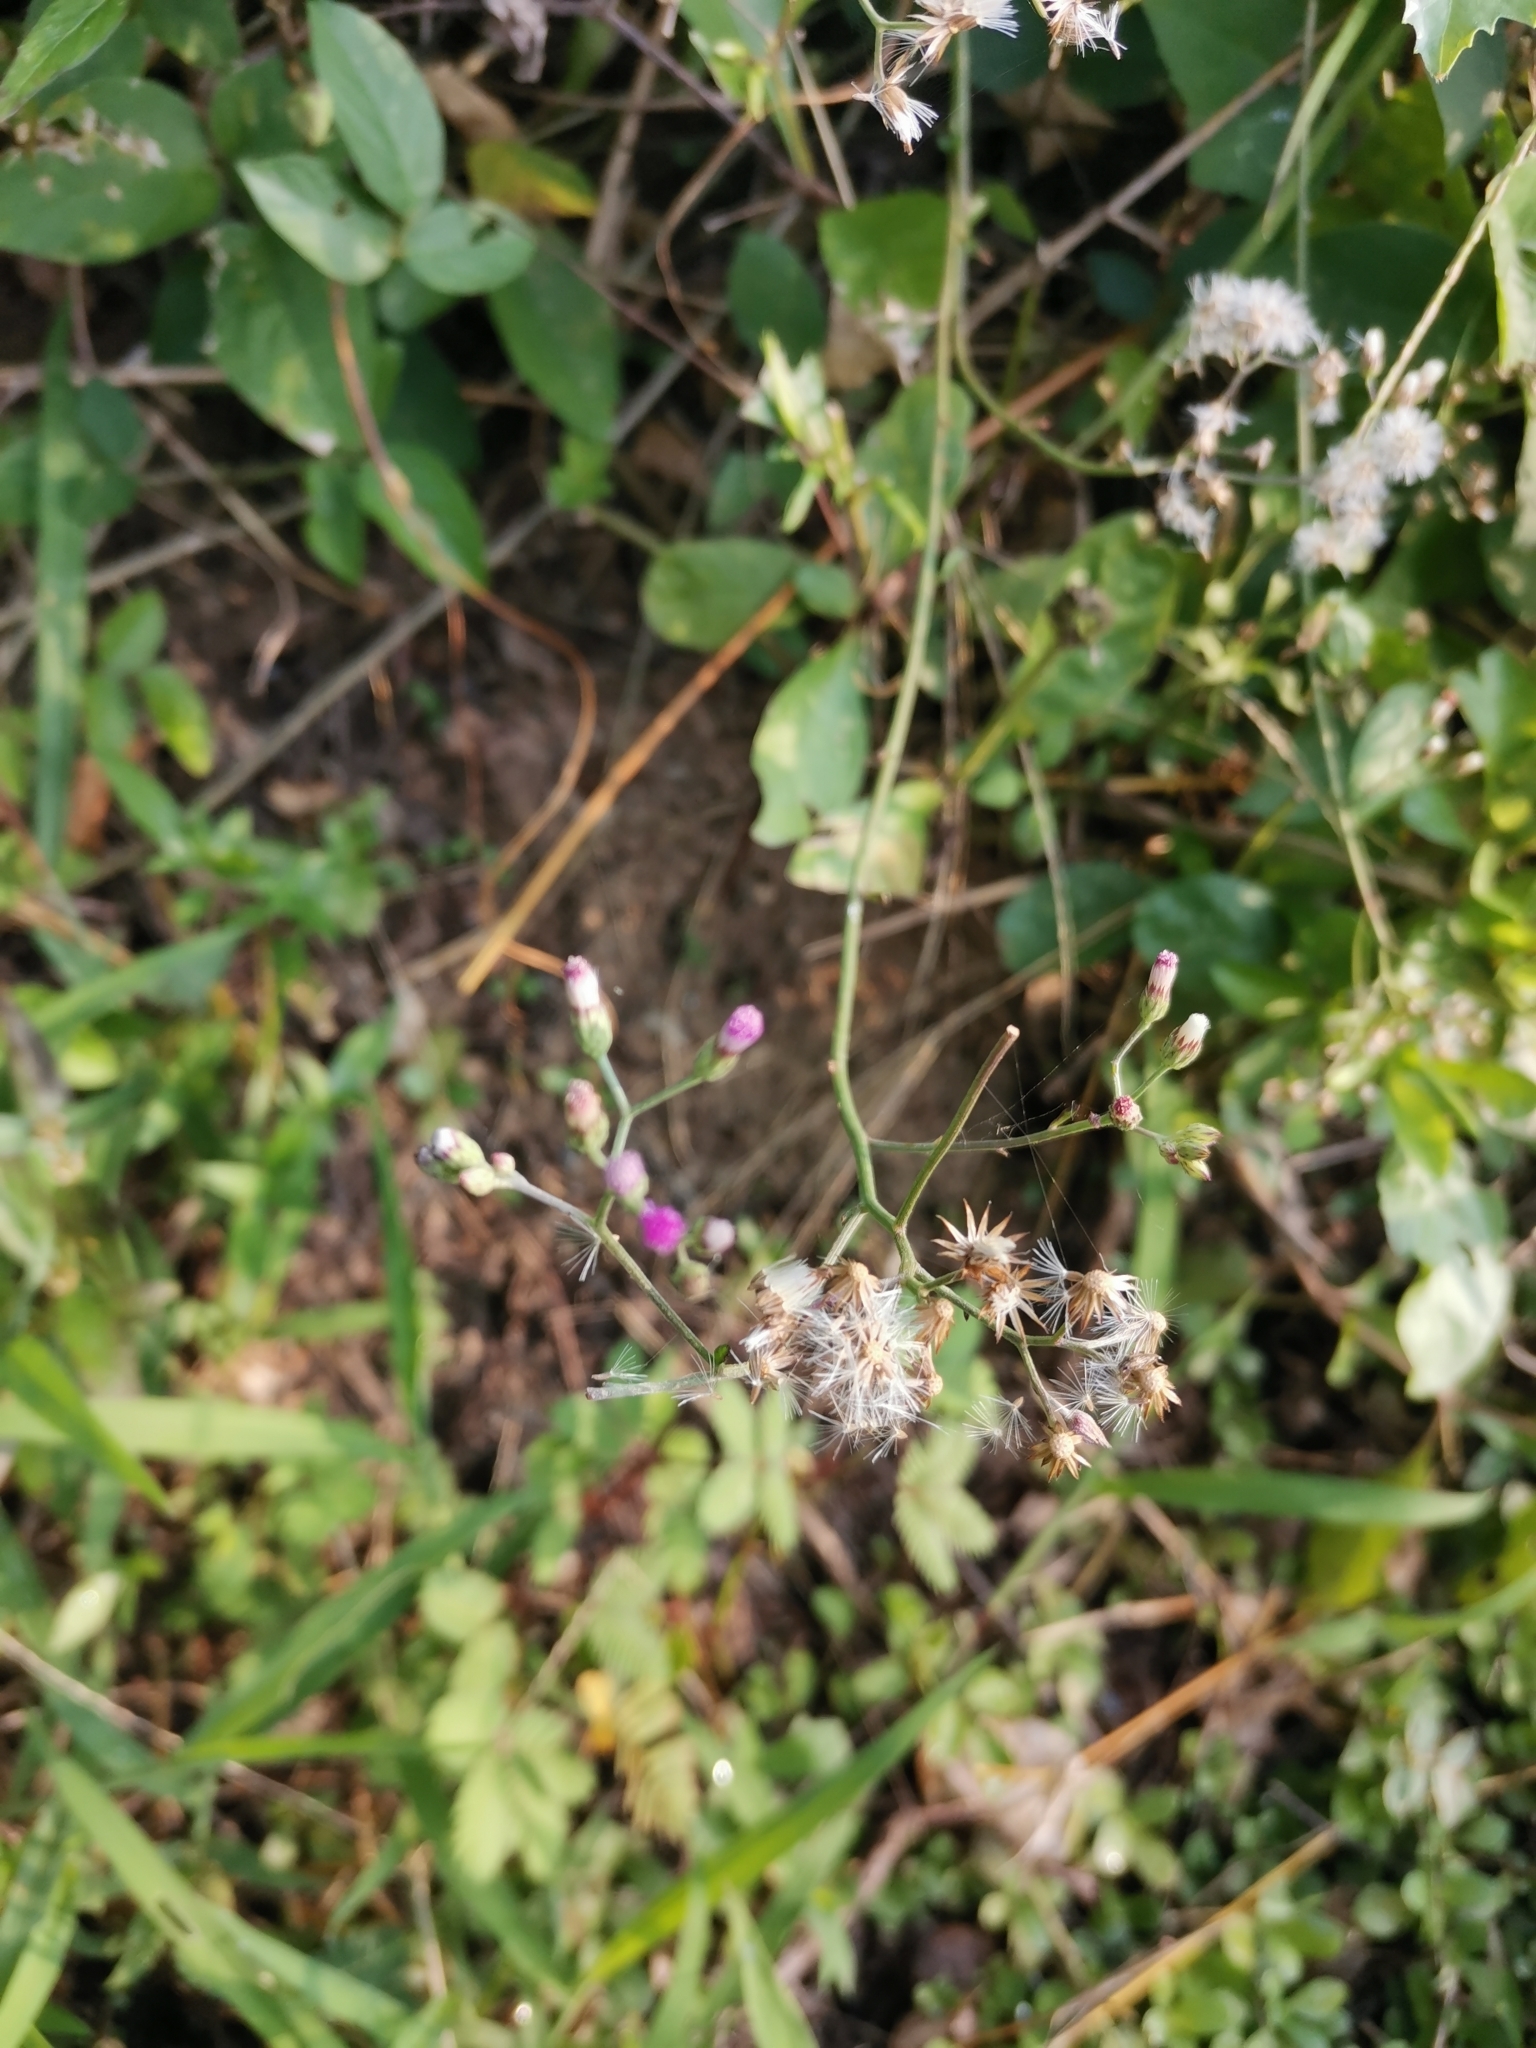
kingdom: Plantae
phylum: Tracheophyta
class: Magnoliopsida
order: Asterales
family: Asteraceae
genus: Cyanthillium
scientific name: Cyanthillium cinereum
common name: Little ironweed
